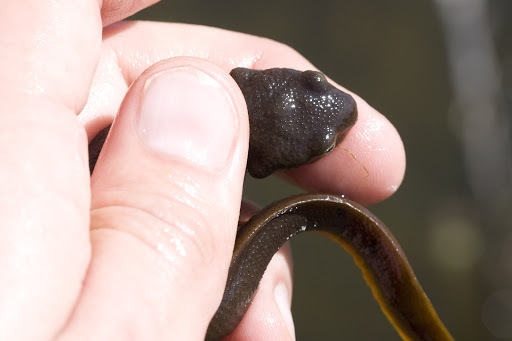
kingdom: Animalia
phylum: Chordata
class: Amphibia
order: Caudata
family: Salamandridae
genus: Taricha
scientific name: Taricha torosa
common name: California newt
